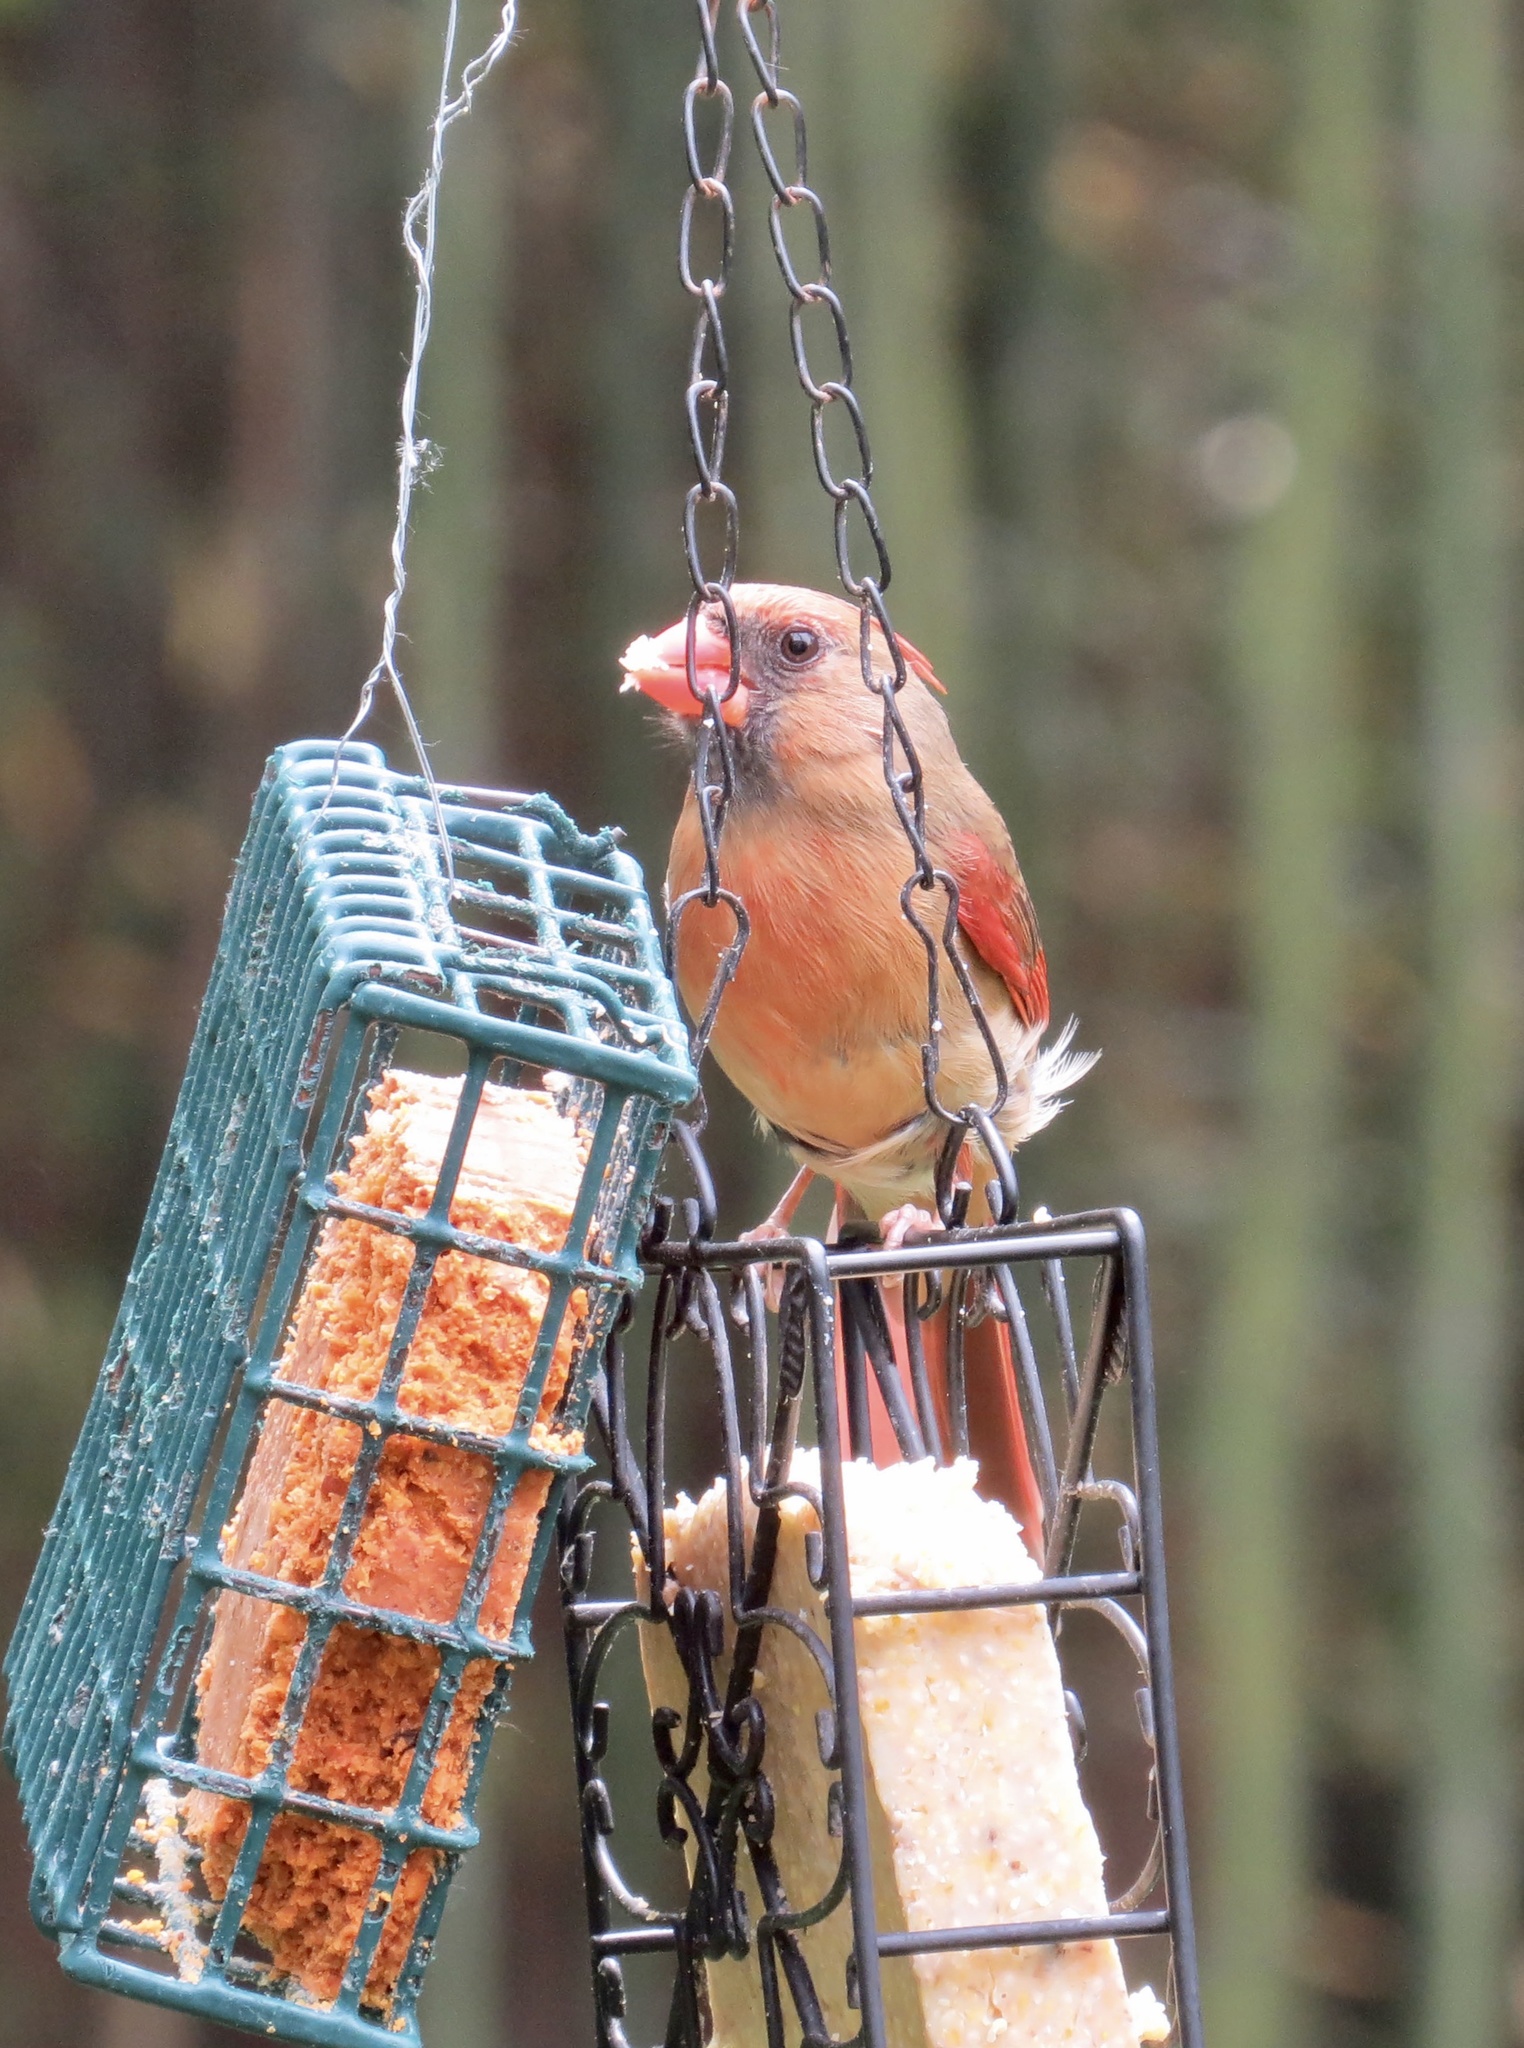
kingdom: Animalia
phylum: Chordata
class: Aves
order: Passeriformes
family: Cardinalidae
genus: Cardinalis
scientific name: Cardinalis cardinalis
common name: Northern cardinal
